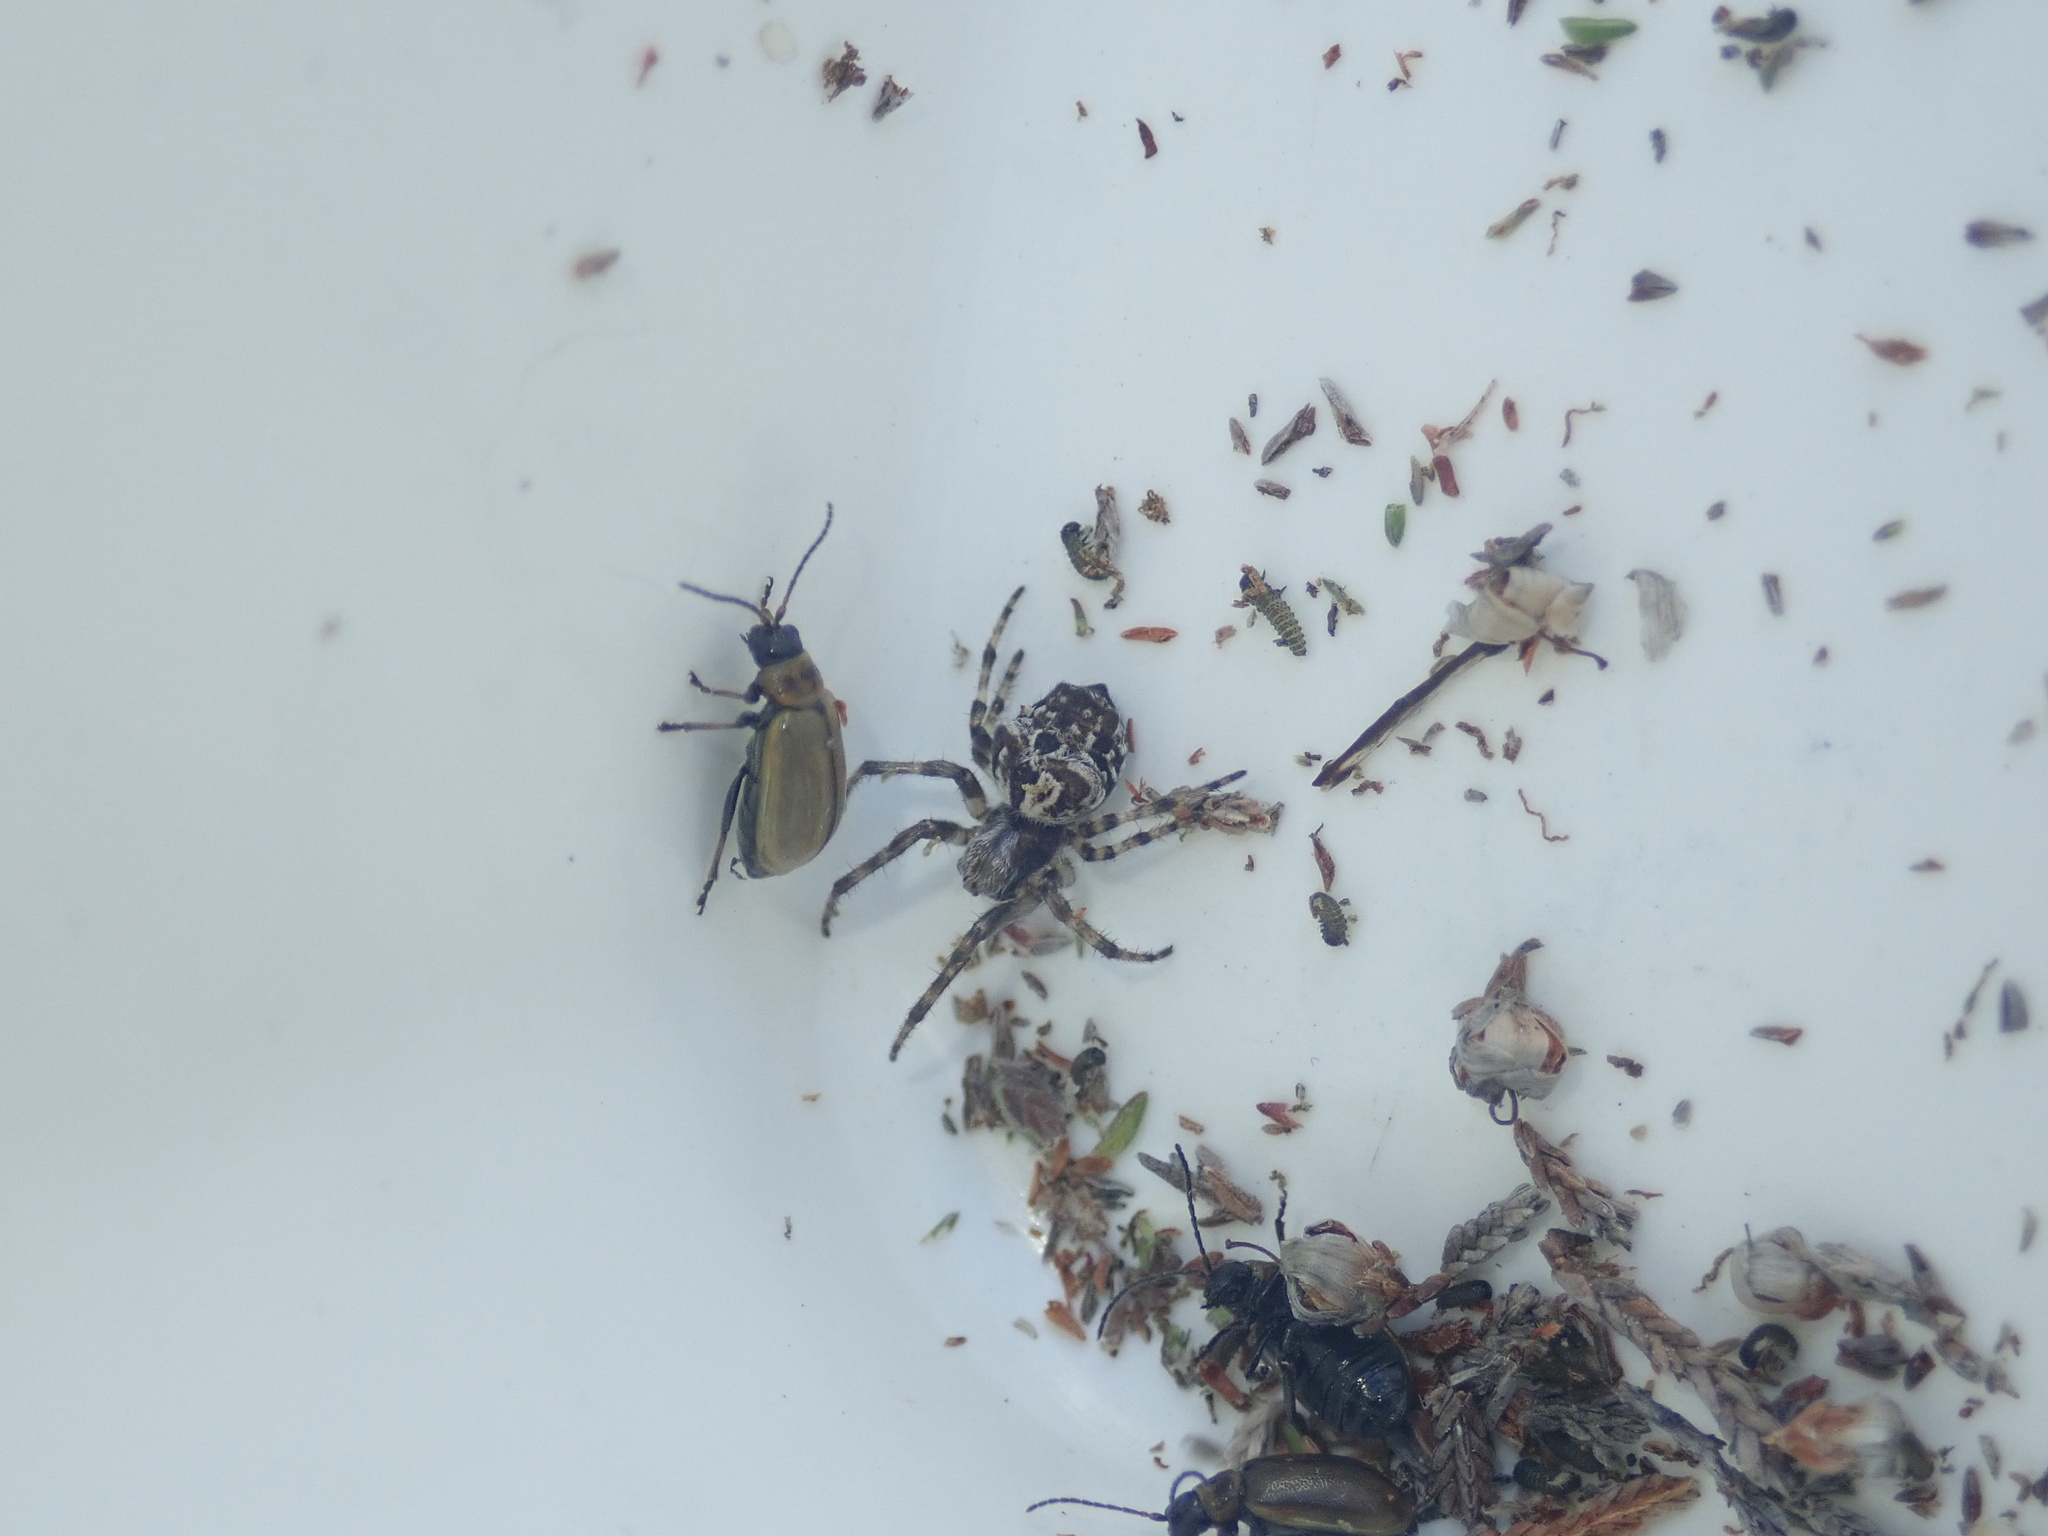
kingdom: Animalia
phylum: Arthropoda
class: Insecta
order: Coleoptera
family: Chrysomelidae
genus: Lochmaea
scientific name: Lochmaea suturalis
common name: Heather beetle
